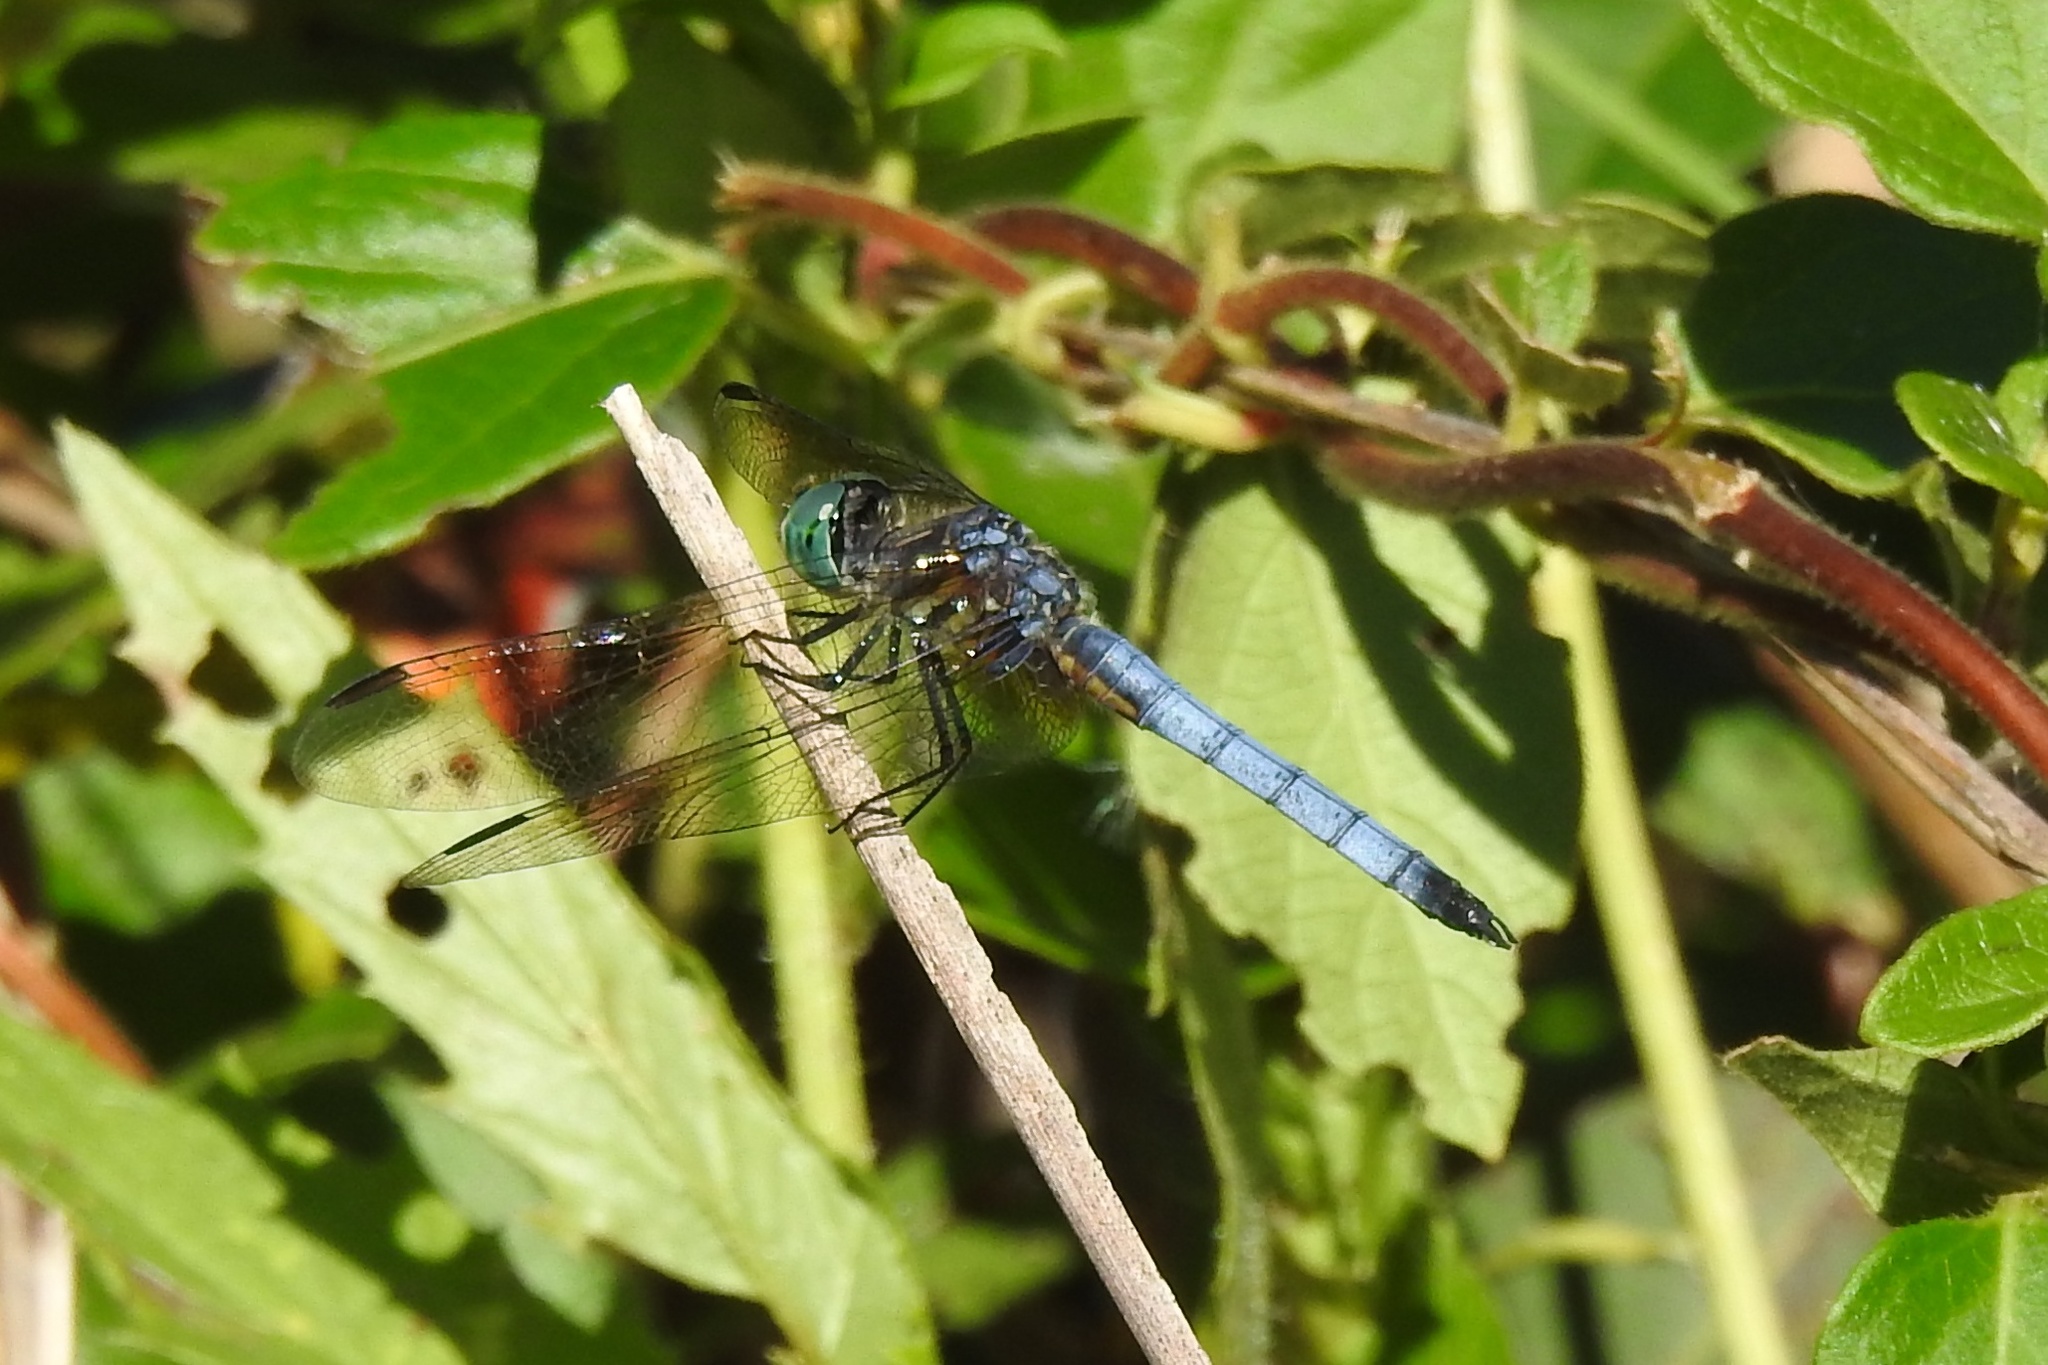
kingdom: Animalia
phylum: Arthropoda
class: Insecta
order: Odonata
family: Libellulidae
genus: Pachydiplax
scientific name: Pachydiplax longipennis
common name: Blue dasher
